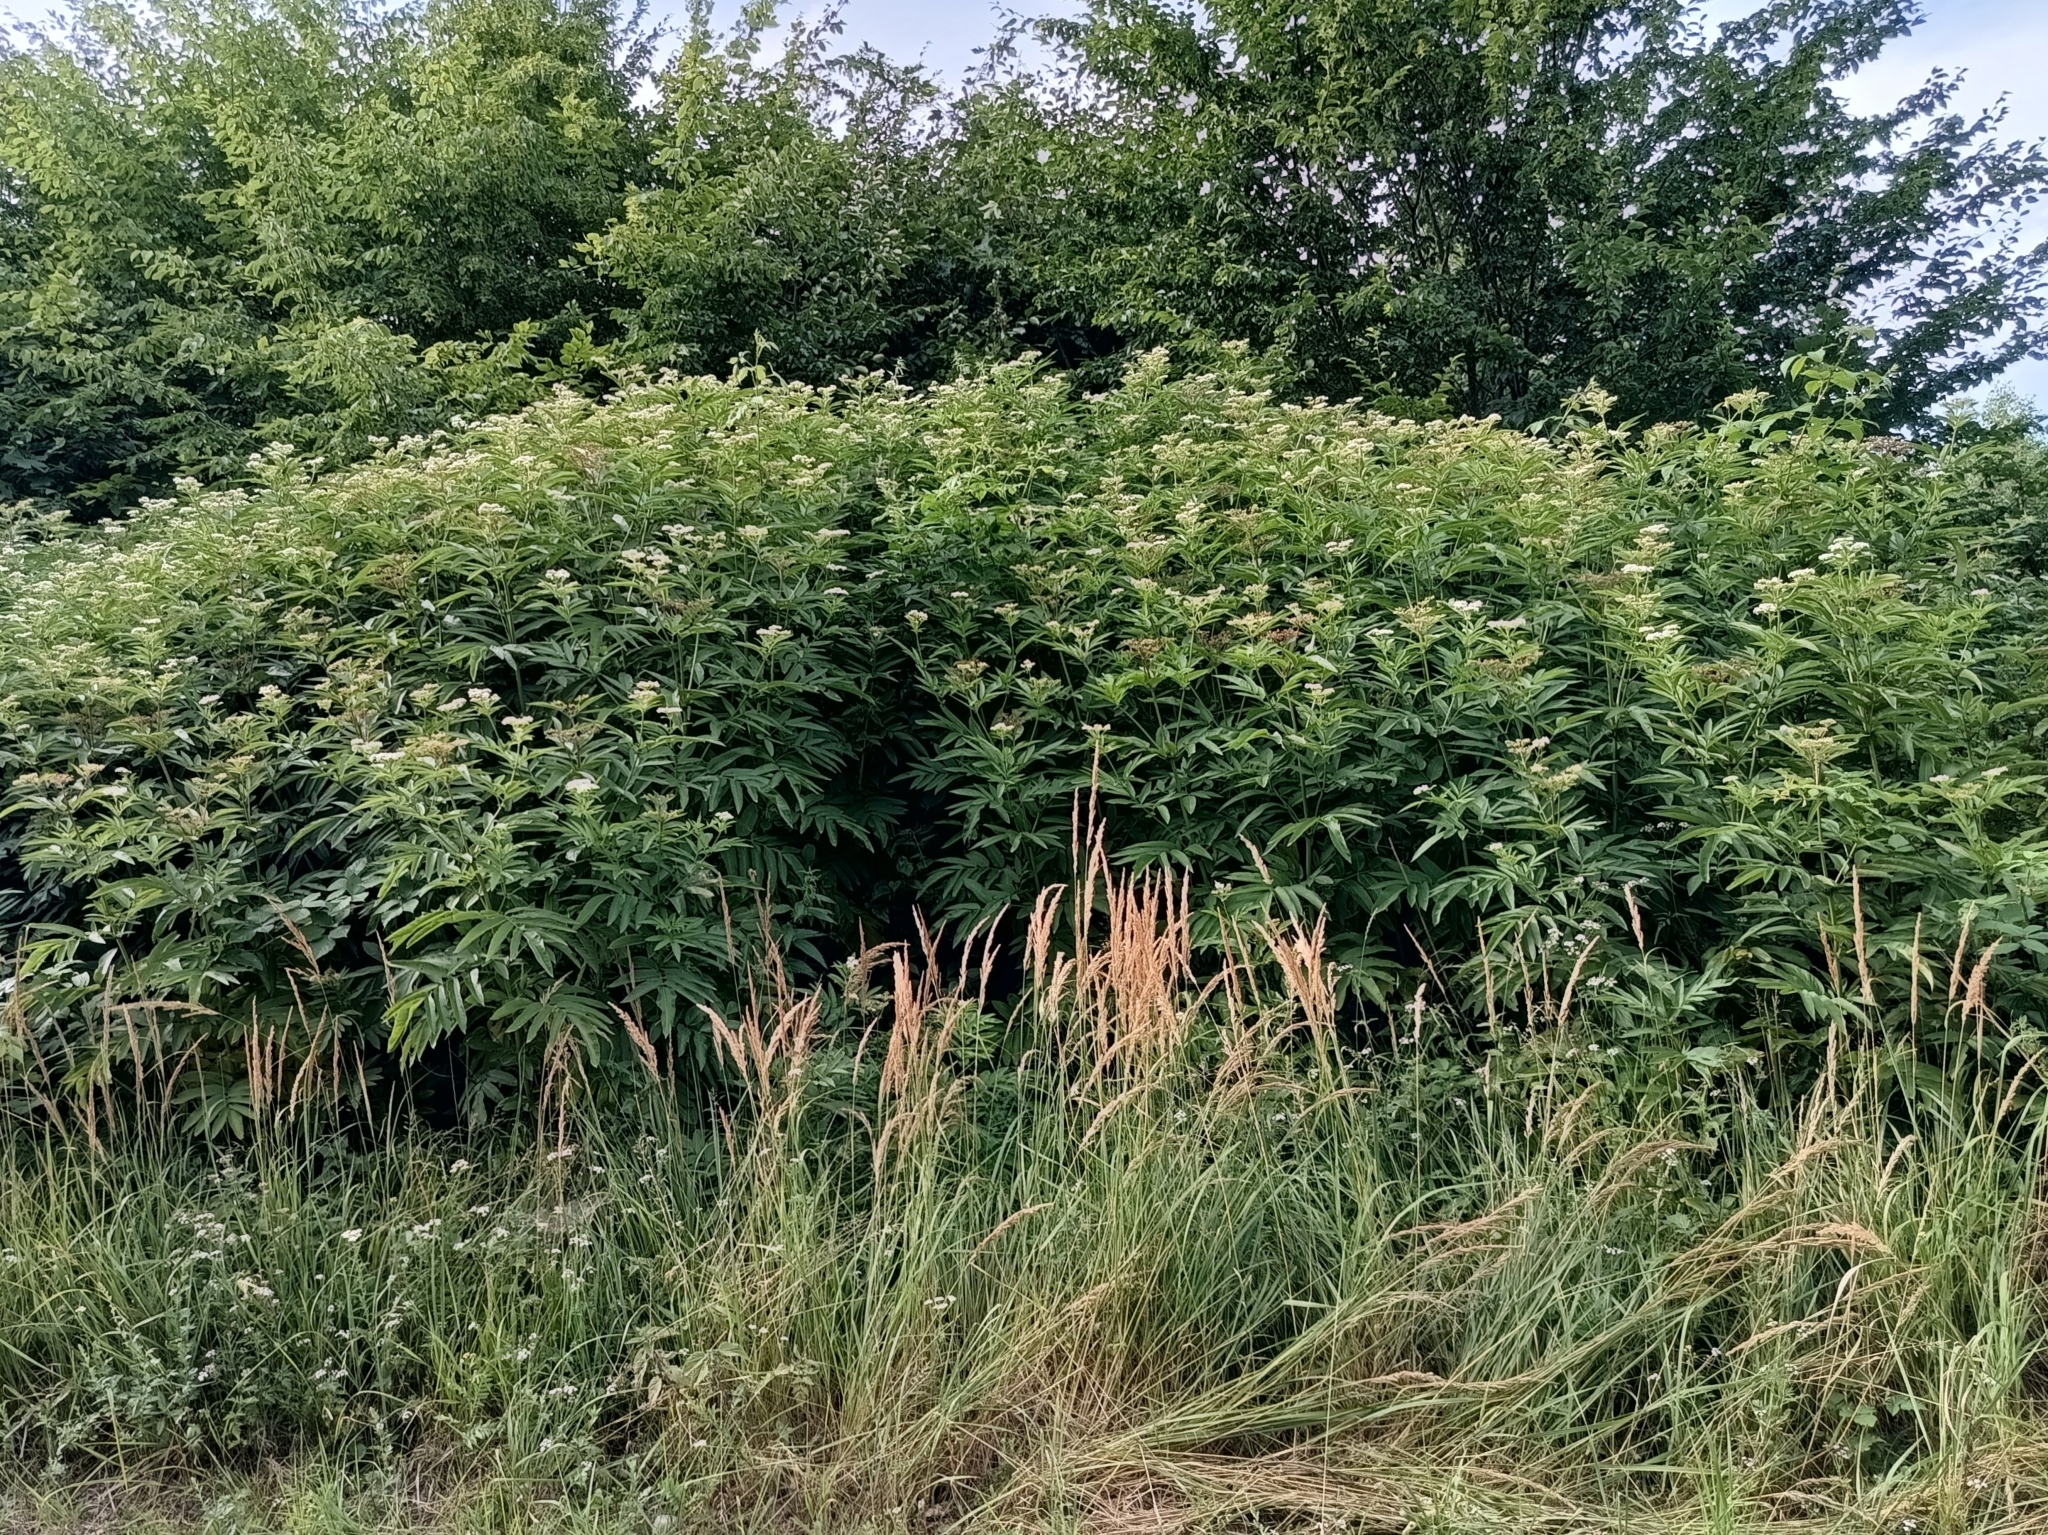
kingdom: Plantae
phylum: Tracheophyta
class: Magnoliopsida
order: Dipsacales
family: Viburnaceae
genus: Sambucus
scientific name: Sambucus ebulus
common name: Dwarf elder
